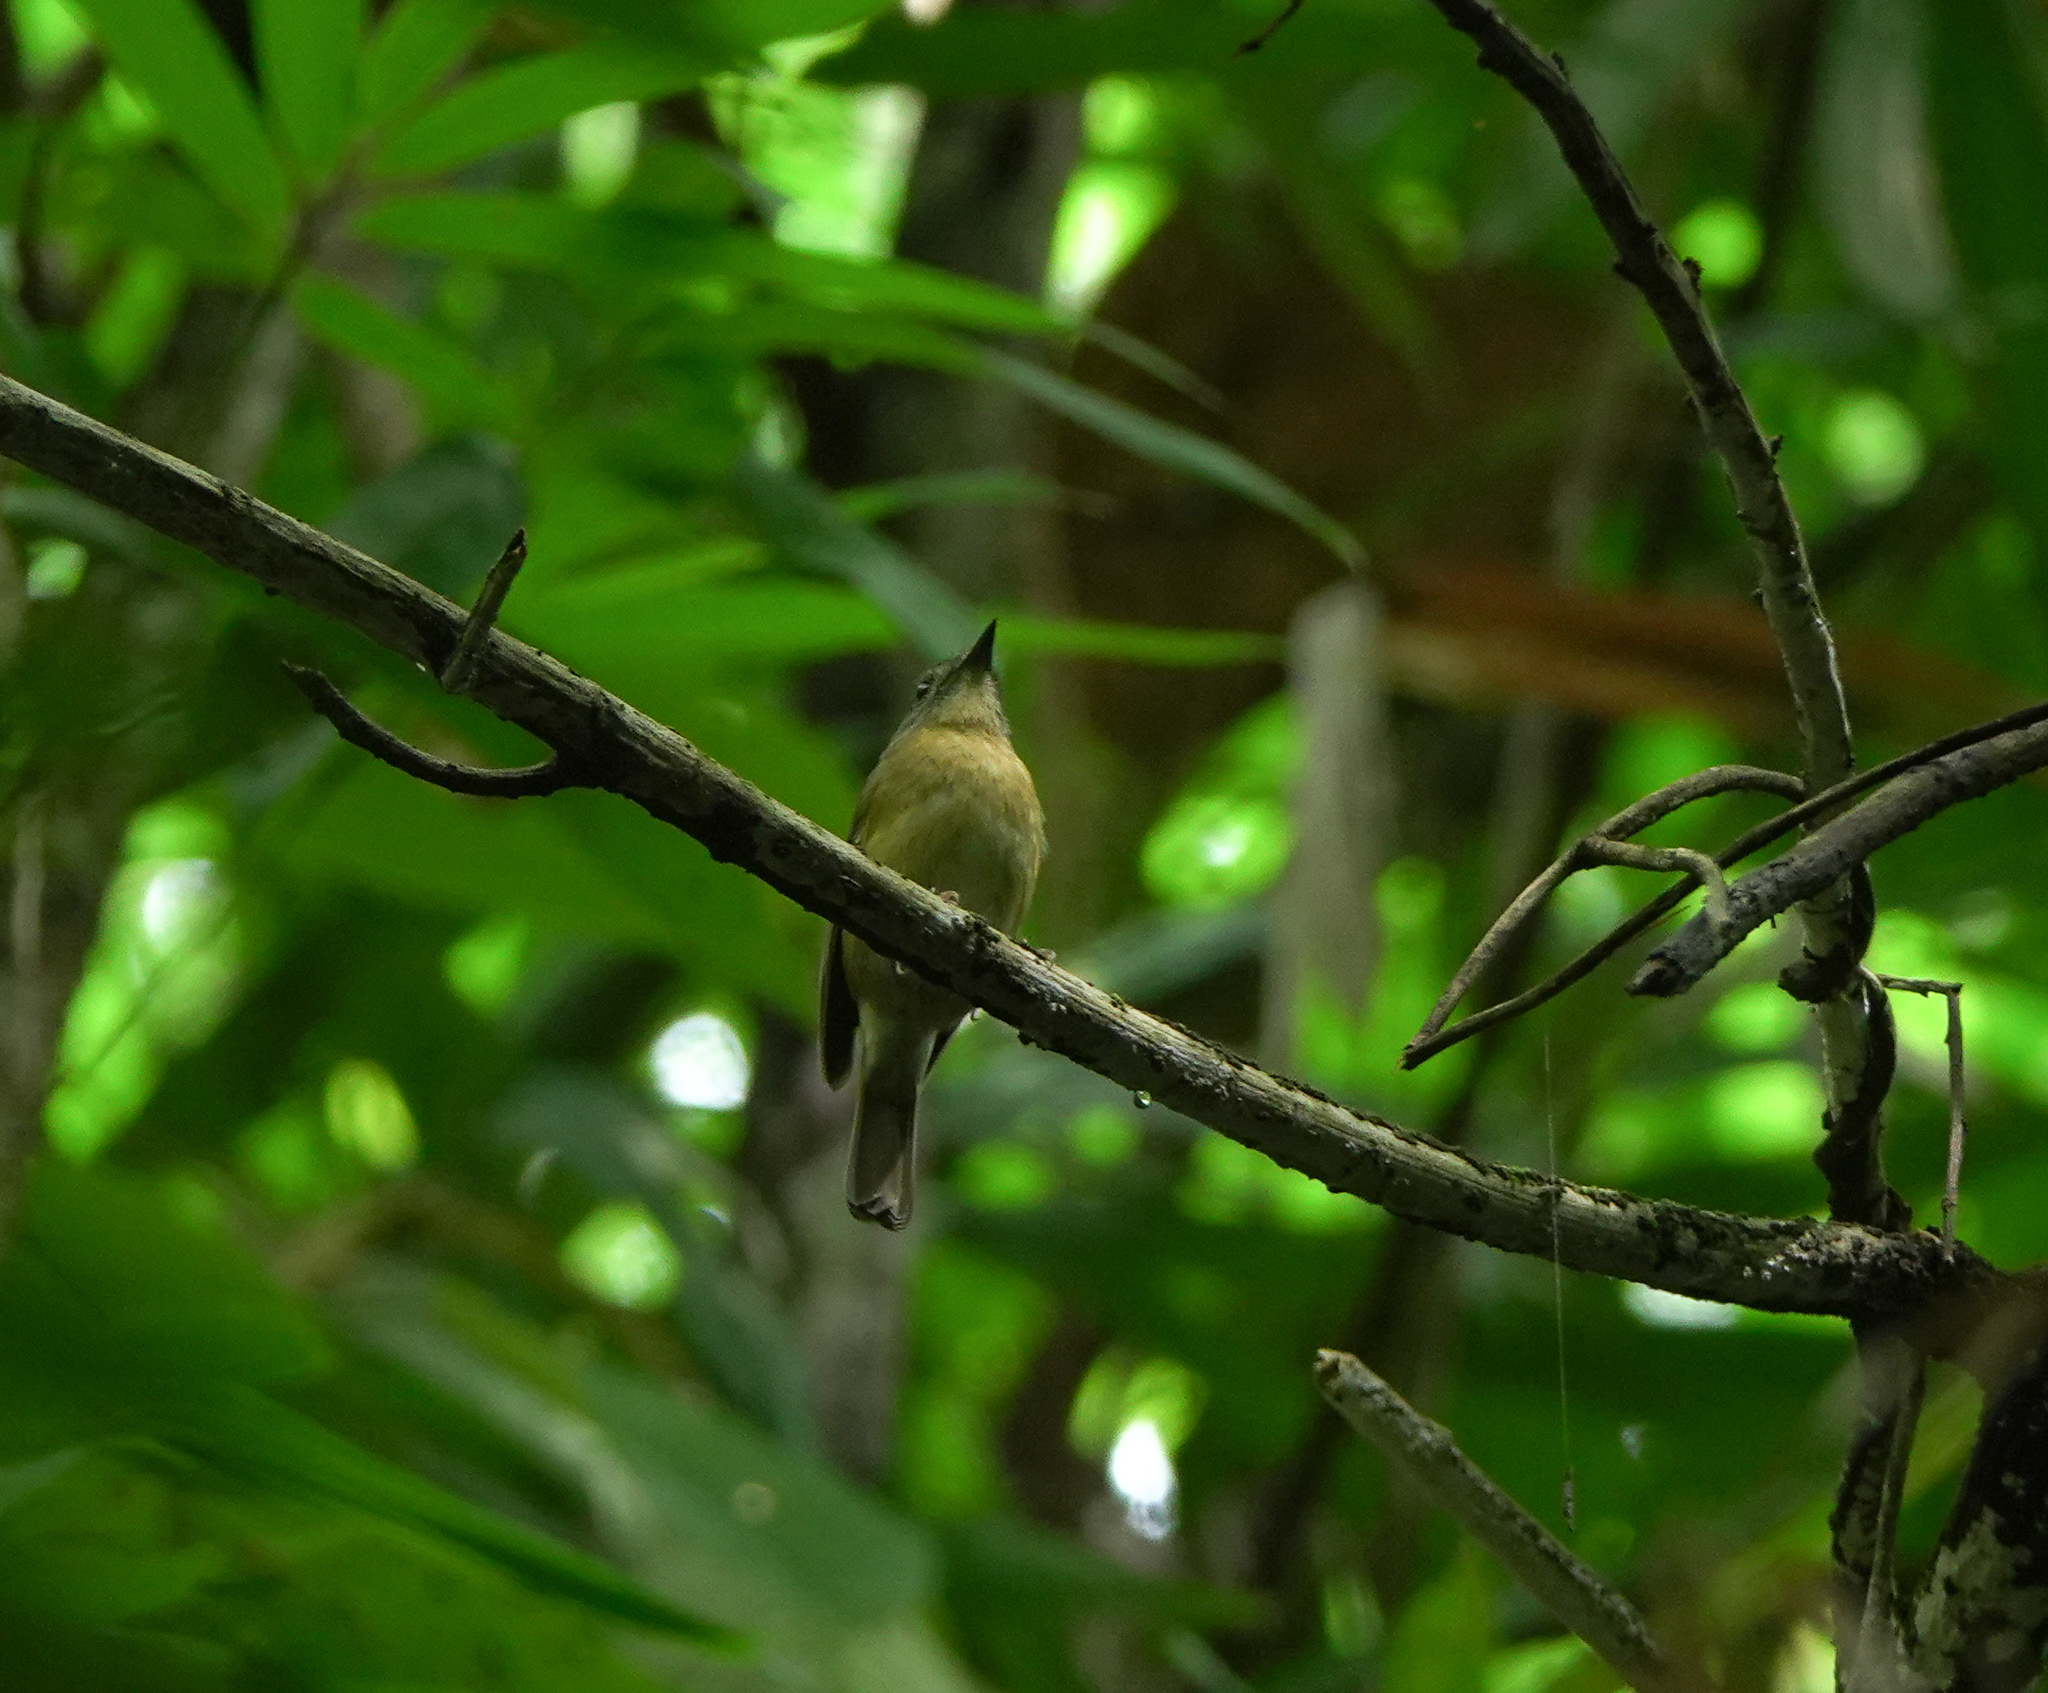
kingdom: Animalia
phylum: Chordata
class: Aves
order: Passeriformes
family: Muscicapidae
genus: Cyornis
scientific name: Cyornis poliogenys
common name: Pale-chinned blue flycatcher
